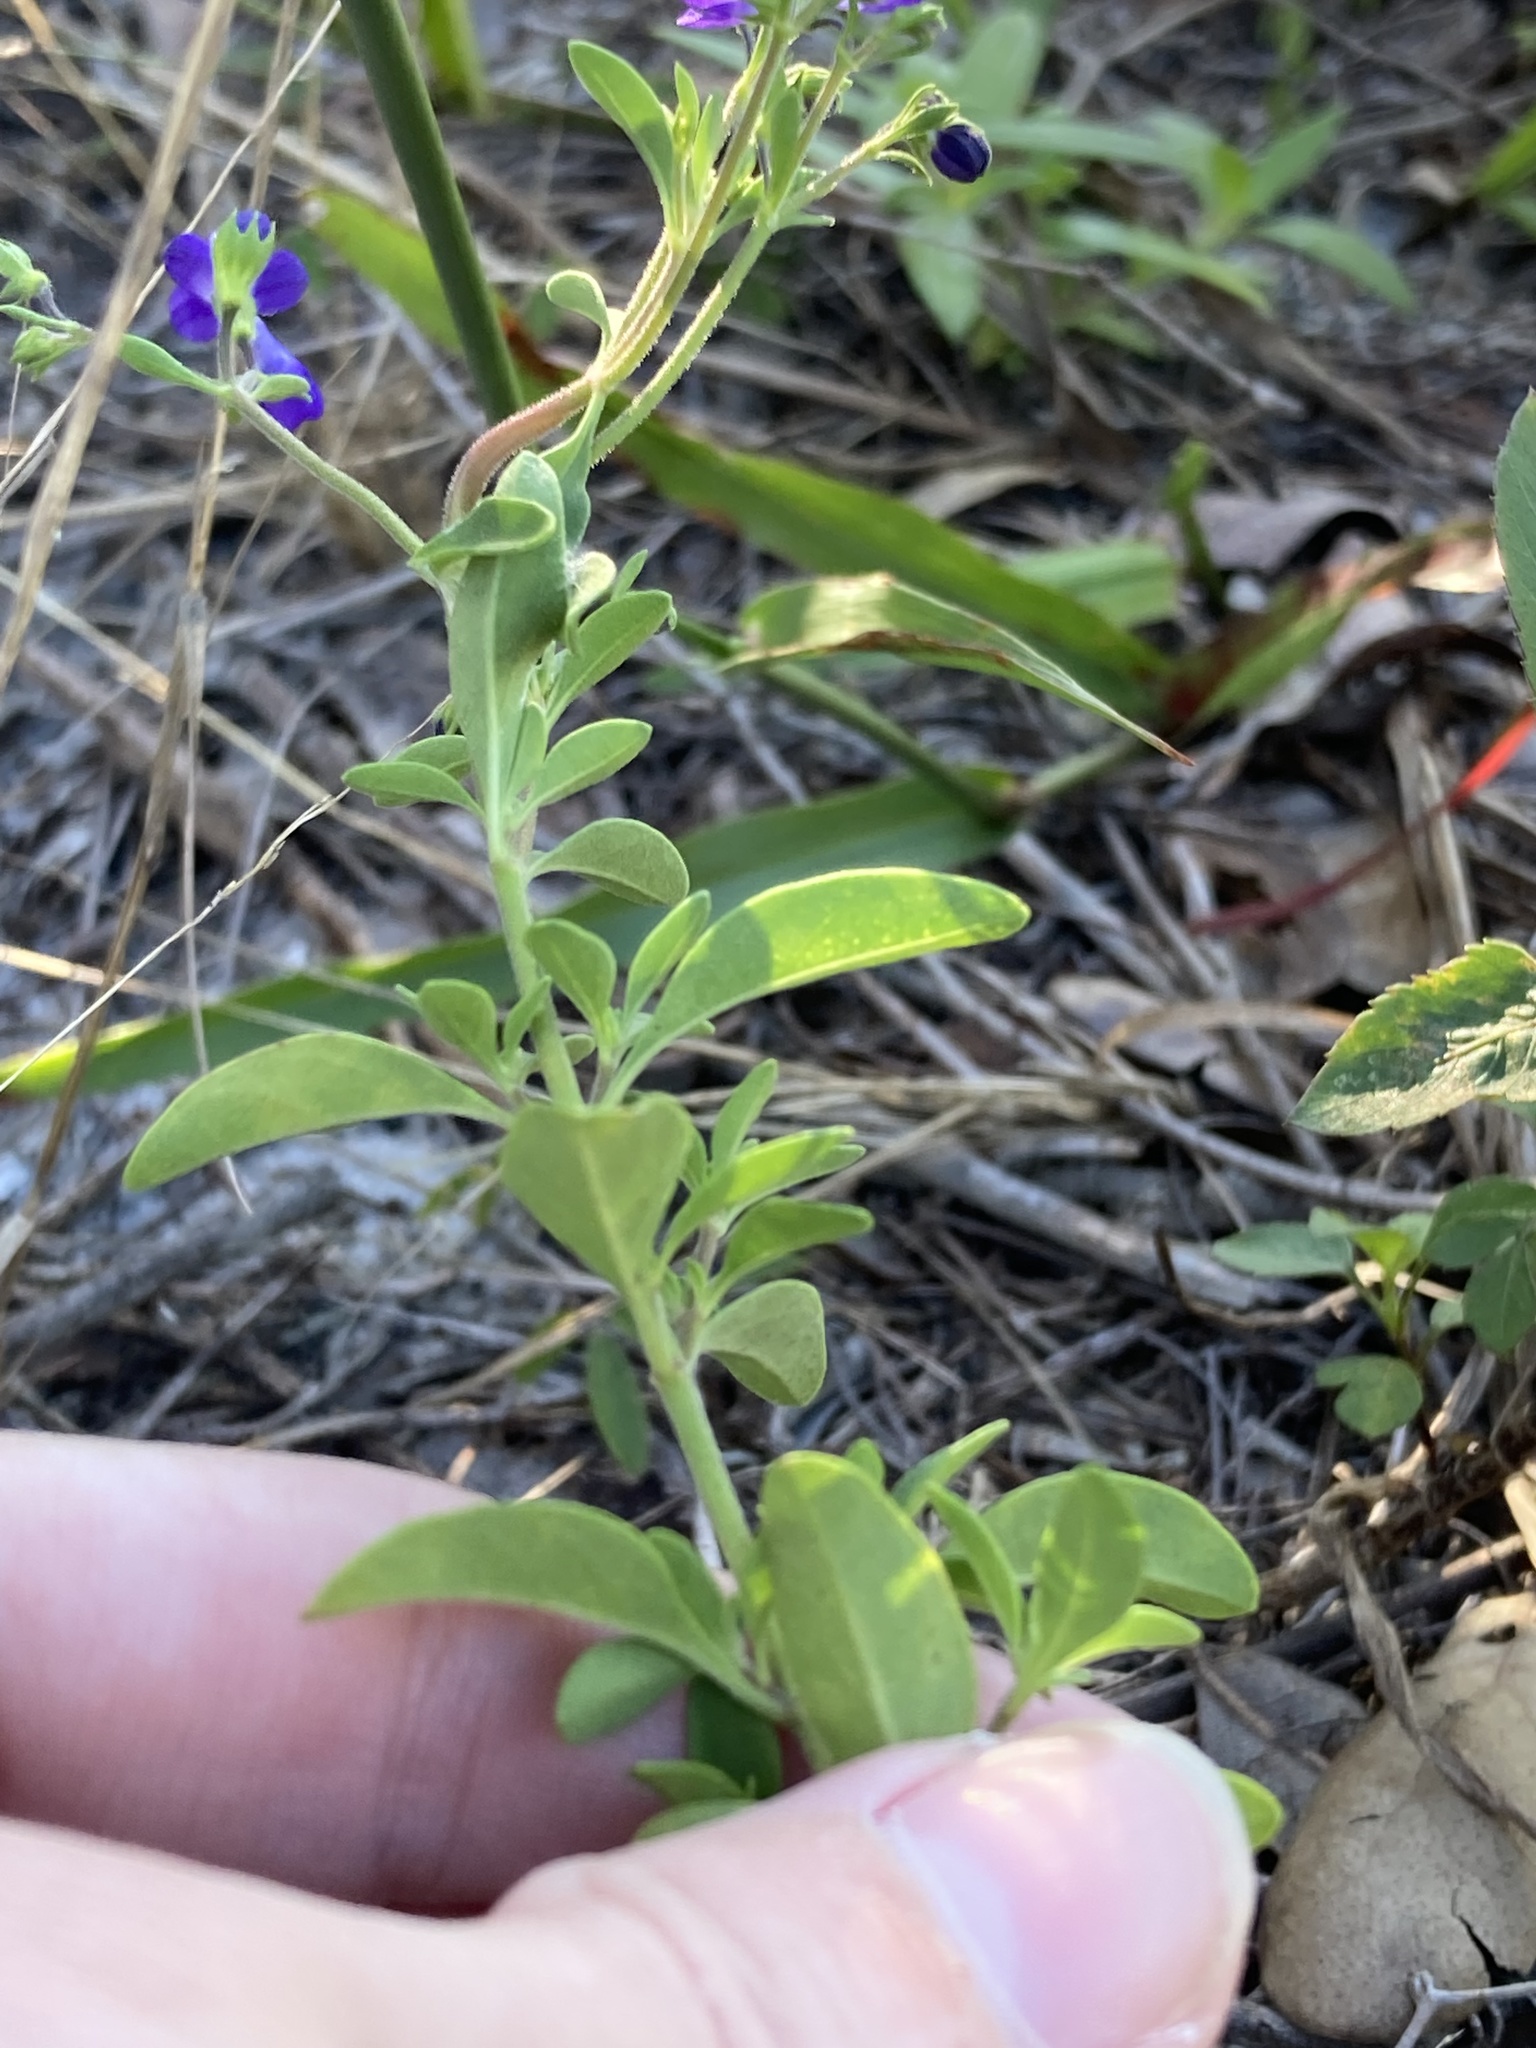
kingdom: Plantae
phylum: Tracheophyta
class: Magnoliopsida
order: Lamiales
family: Lamiaceae
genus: Trichostema
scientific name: Trichostema
